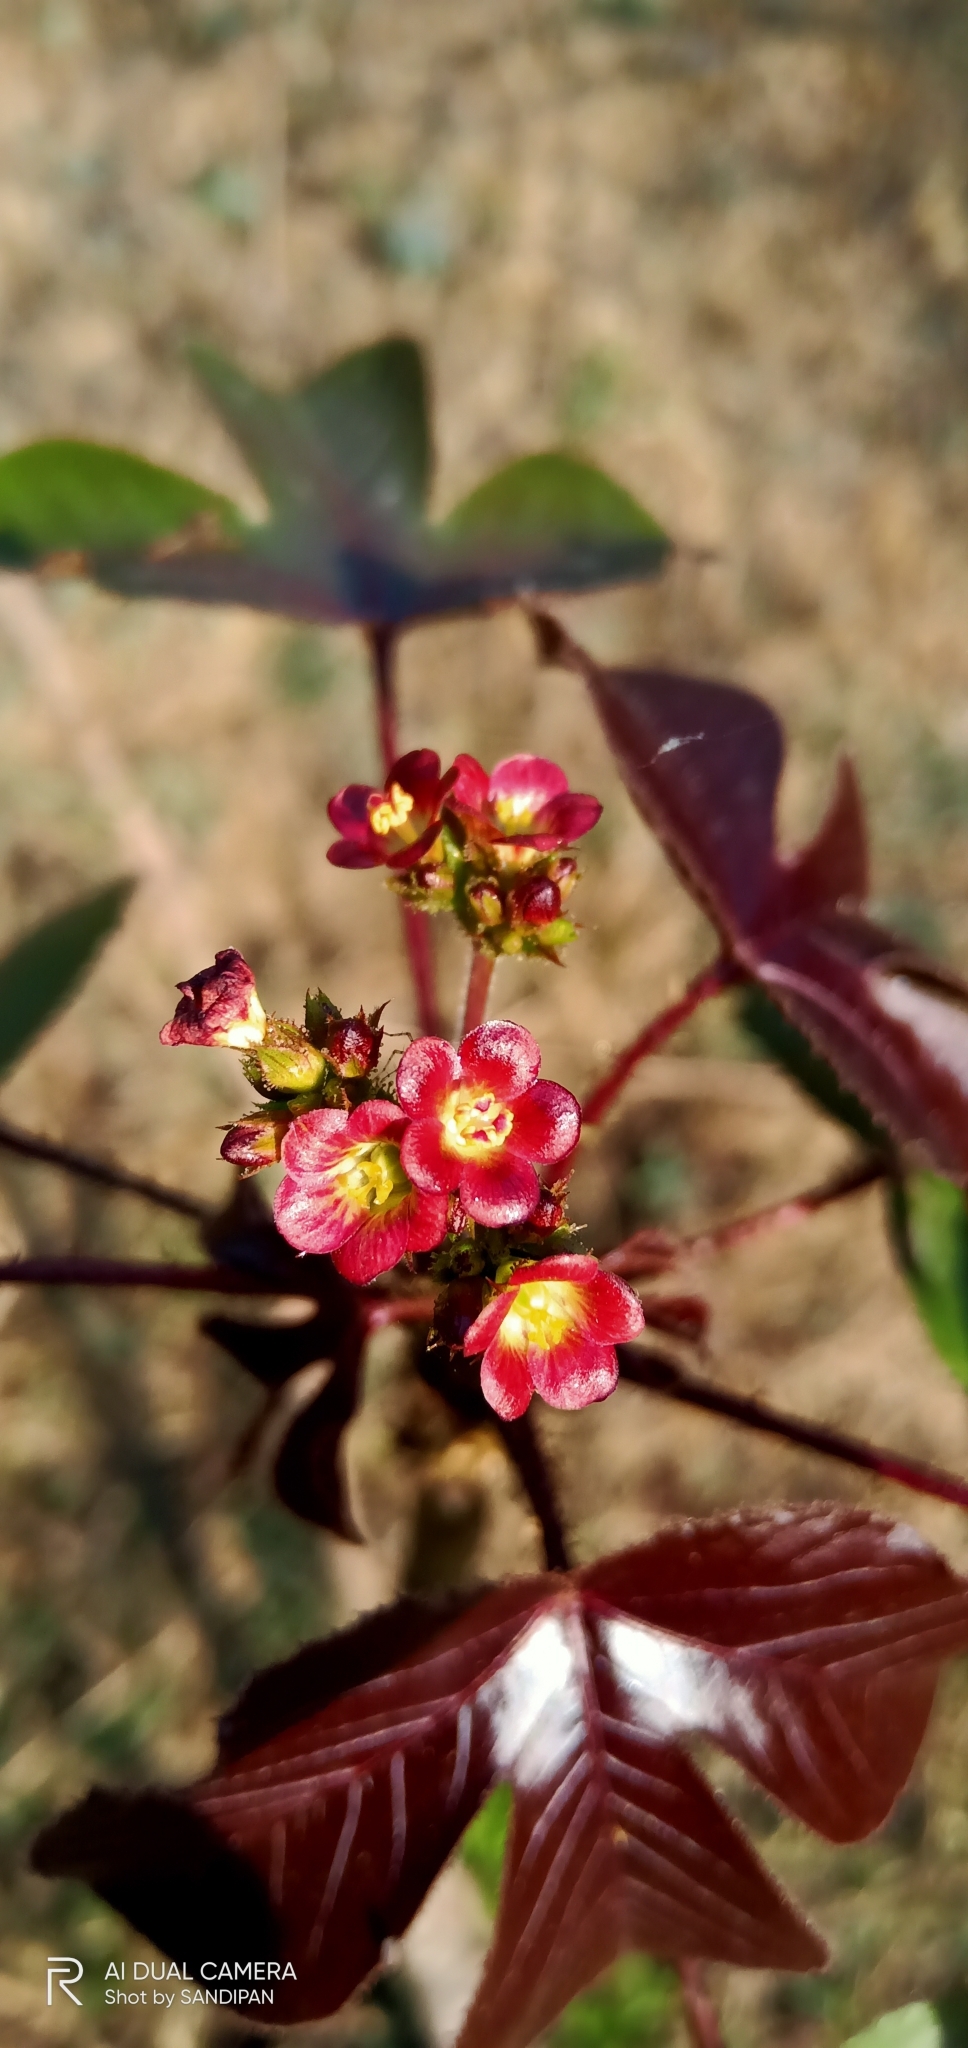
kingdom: Plantae
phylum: Tracheophyta
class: Magnoliopsida
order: Malpighiales
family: Euphorbiaceae
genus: Jatropha
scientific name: Jatropha gossypiifolia
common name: Bellyache bush
